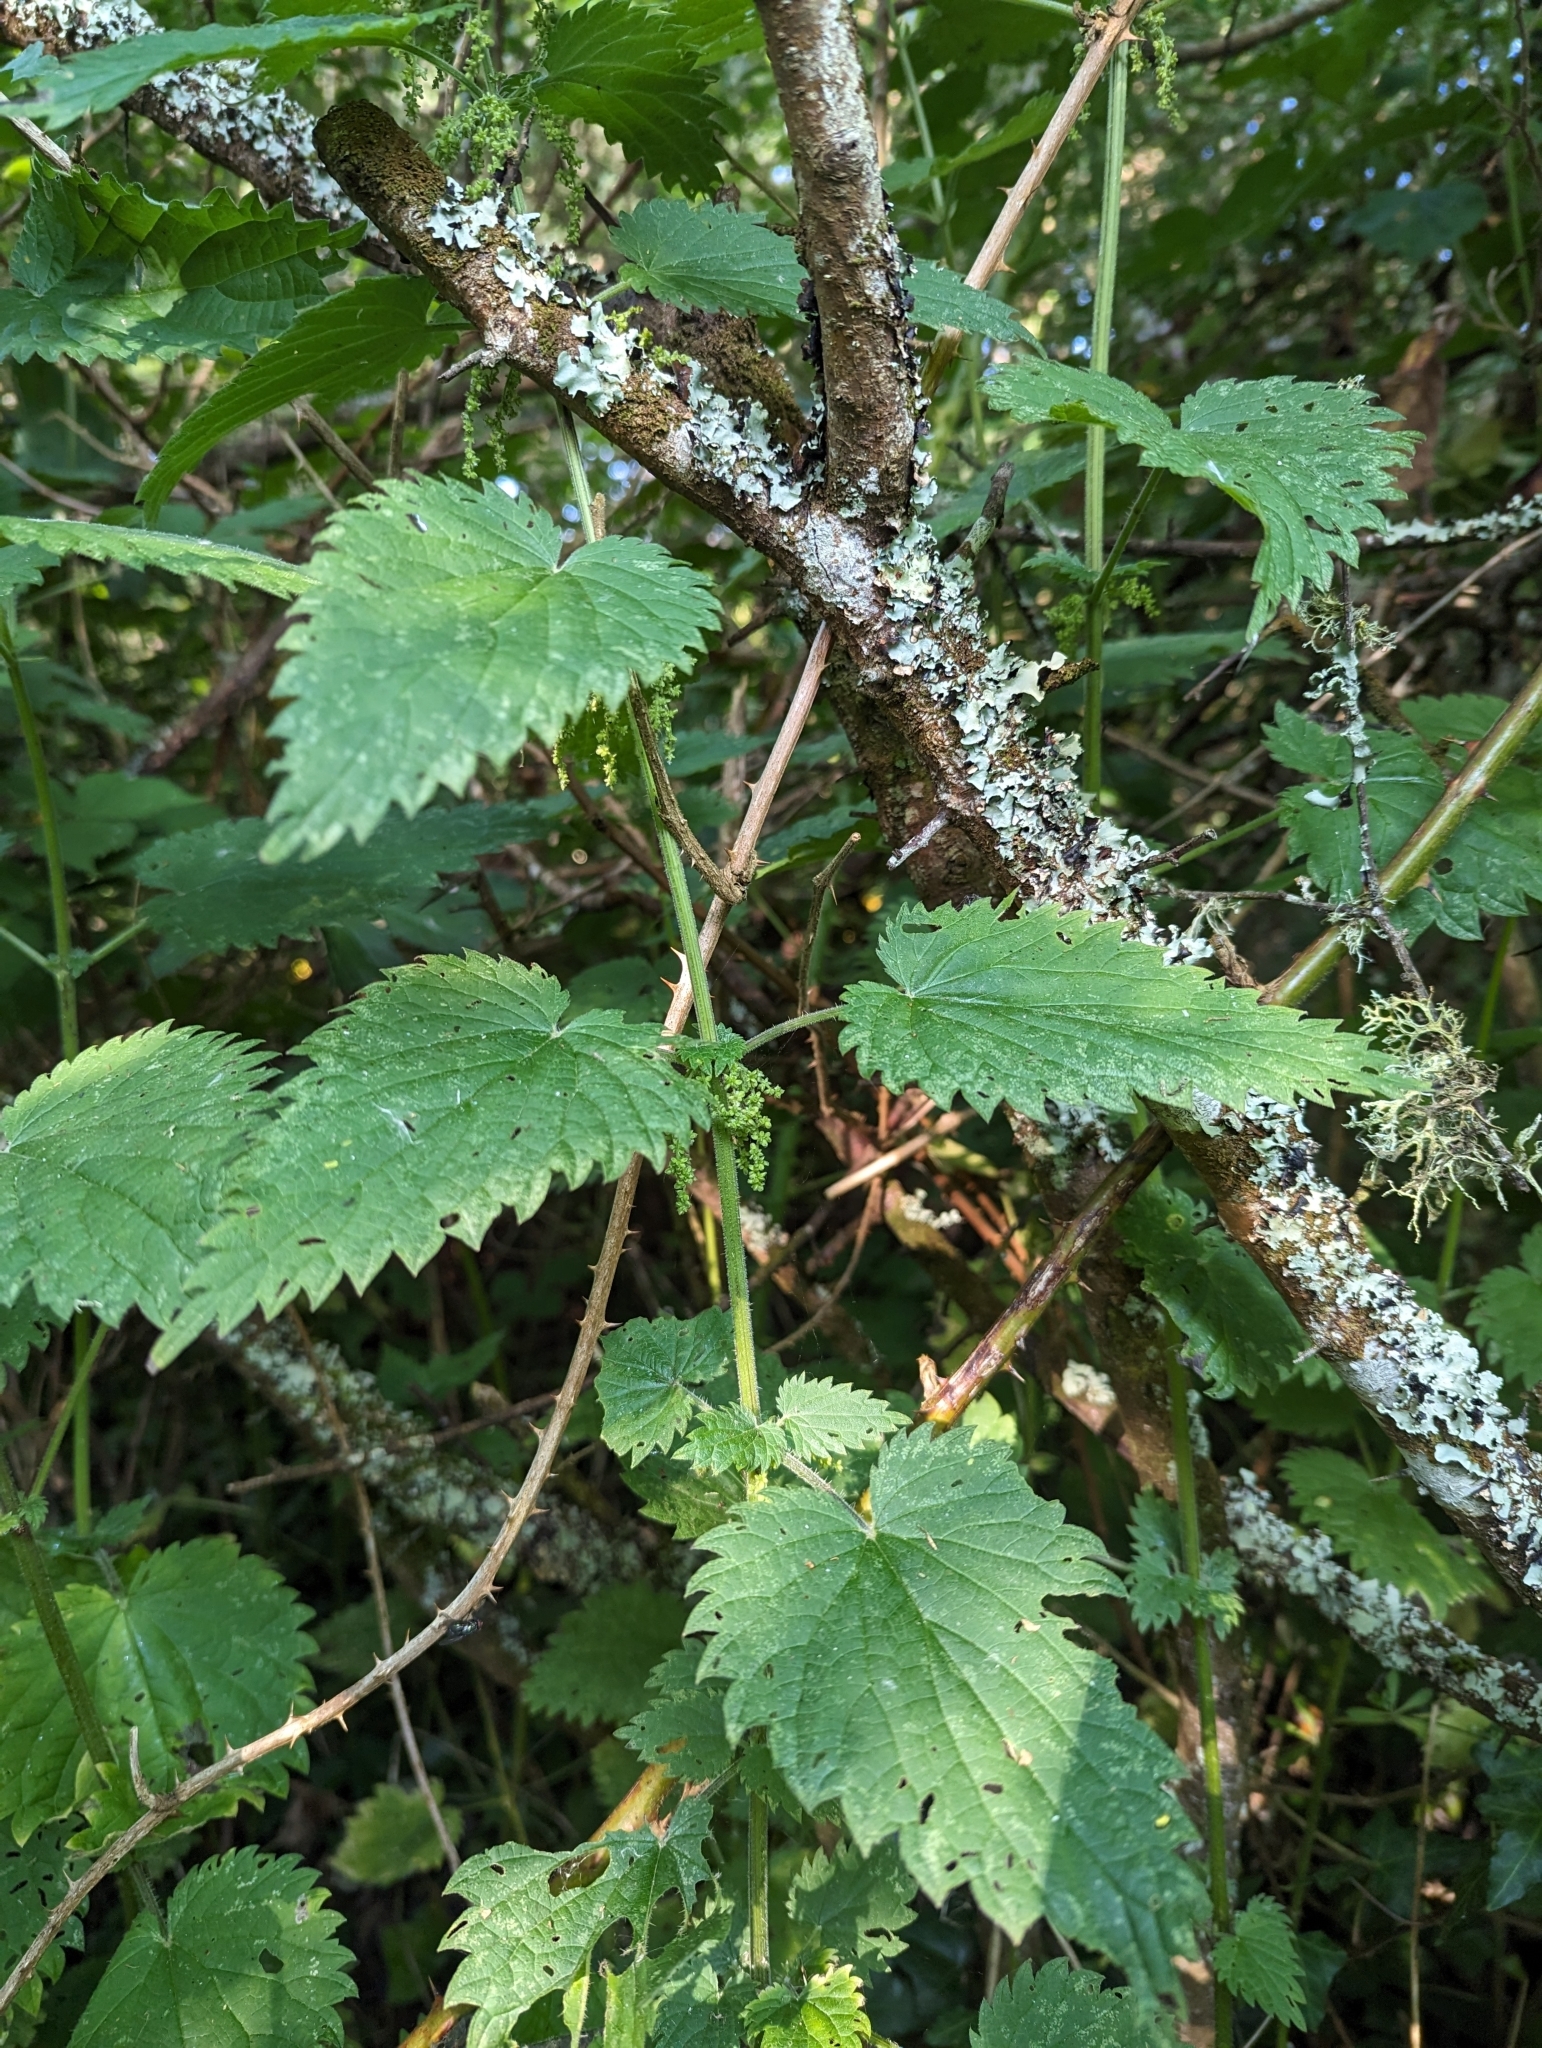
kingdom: Plantae
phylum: Tracheophyta
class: Magnoliopsida
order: Rosales
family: Urticaceae
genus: Urtica
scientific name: Urtica dioica
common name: Common nettle
